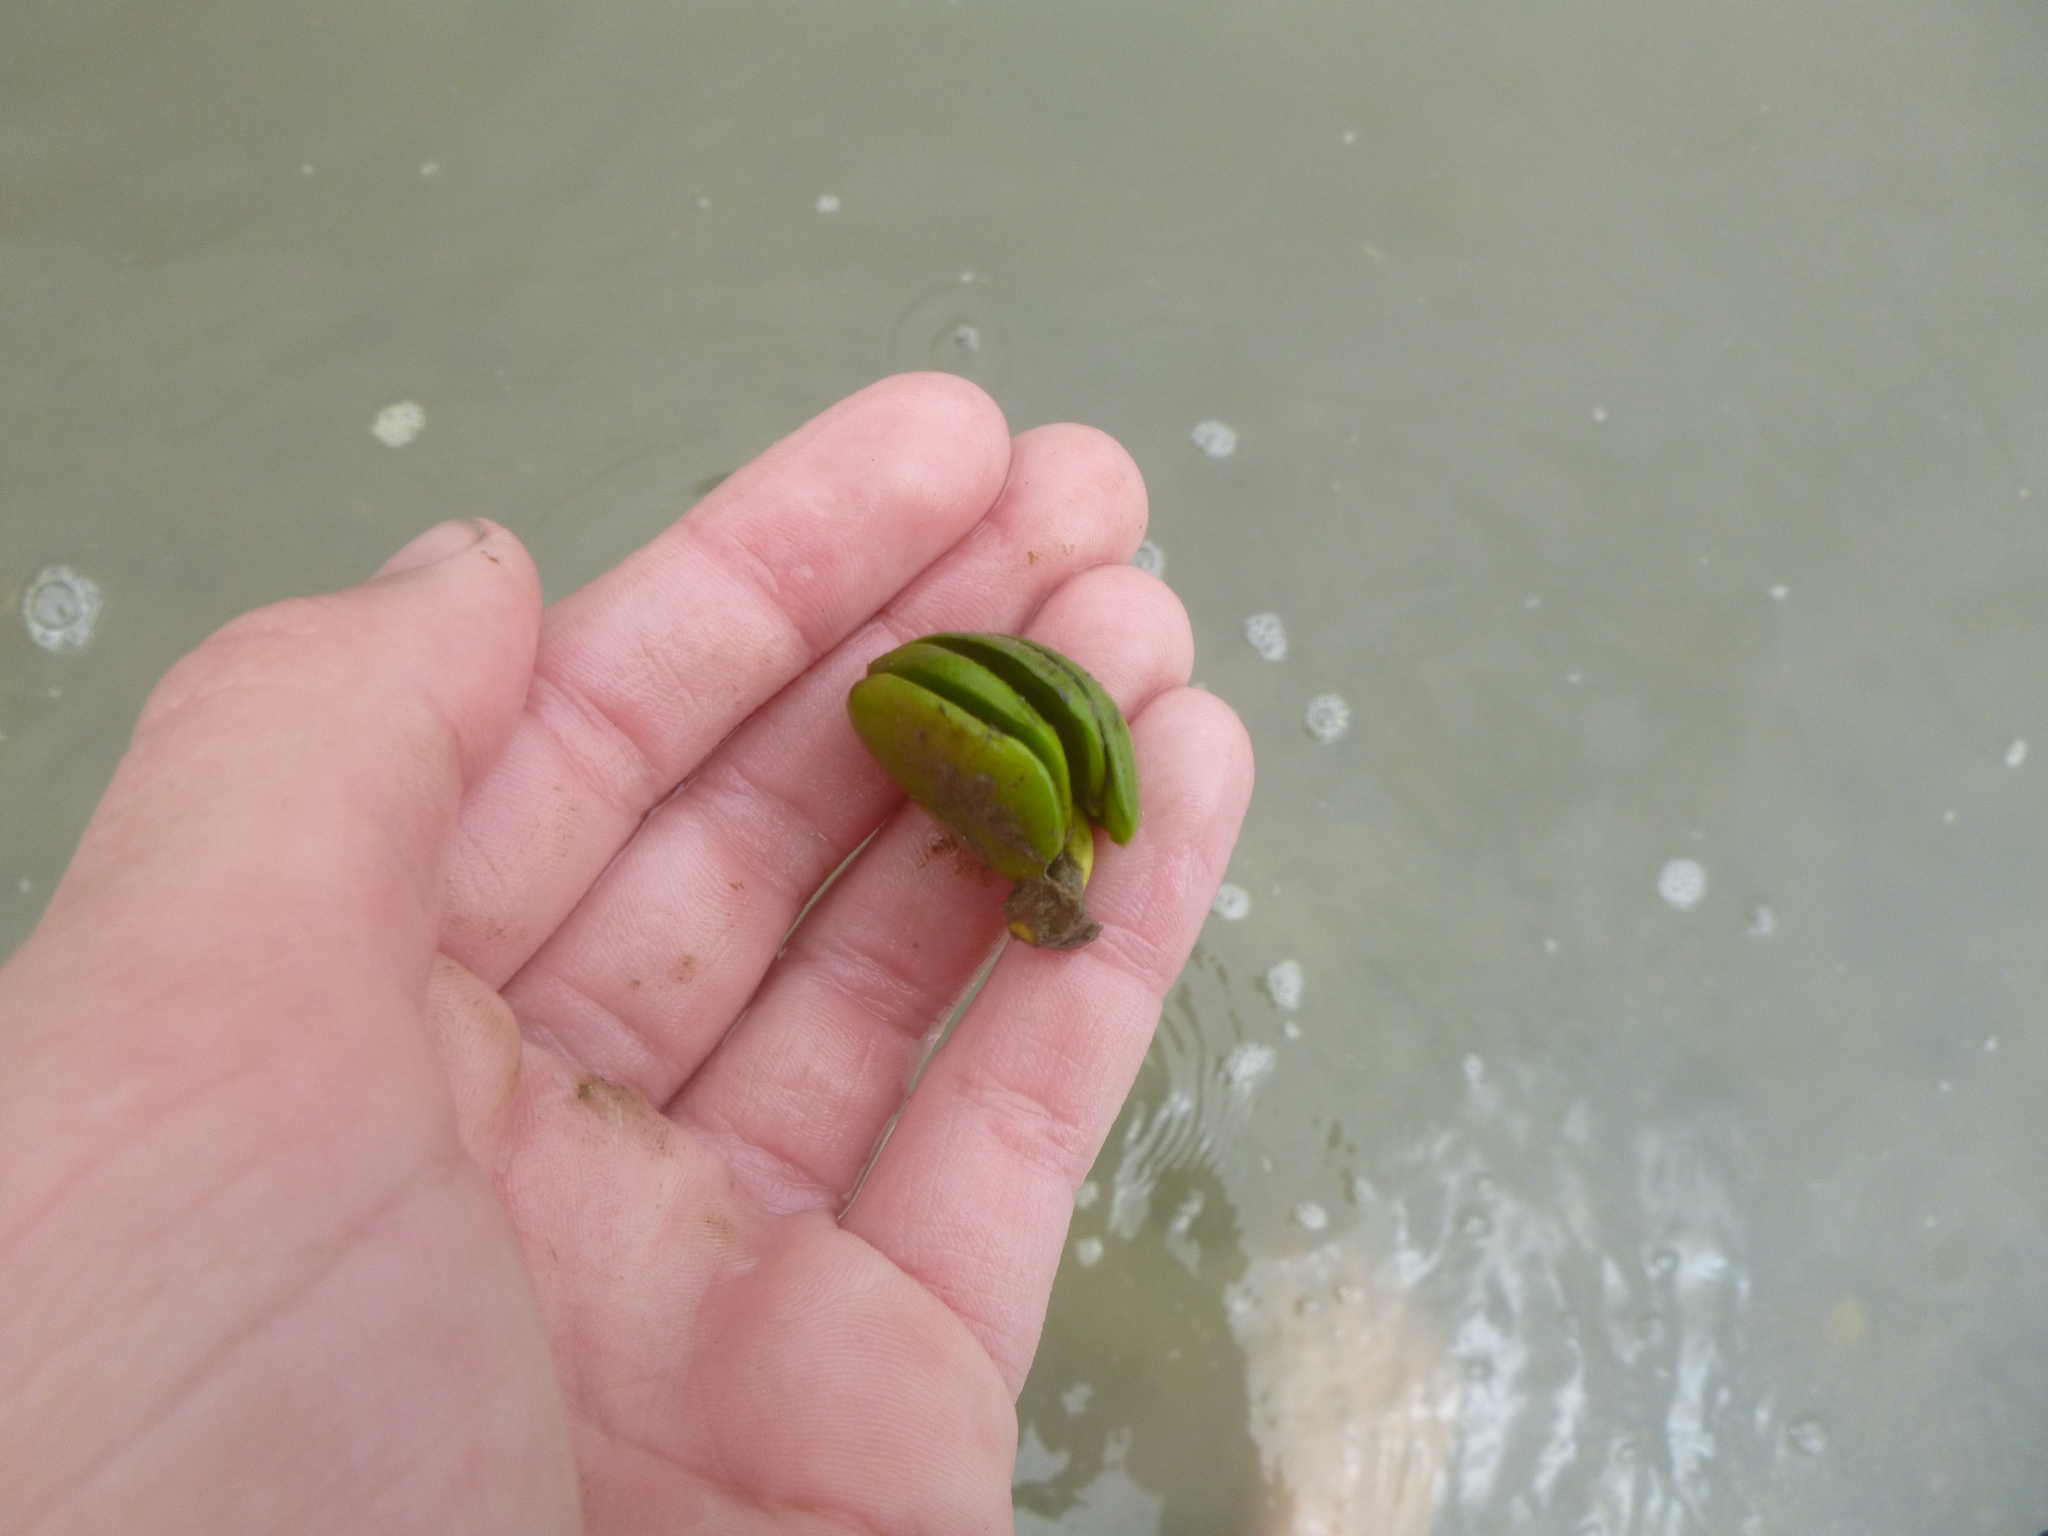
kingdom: Plantae
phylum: Tracheophyta
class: Magnoliopsida
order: Lamiales
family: Acanthaceae
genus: Avicennia
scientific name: Avicennia marina
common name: Gray mangrove
